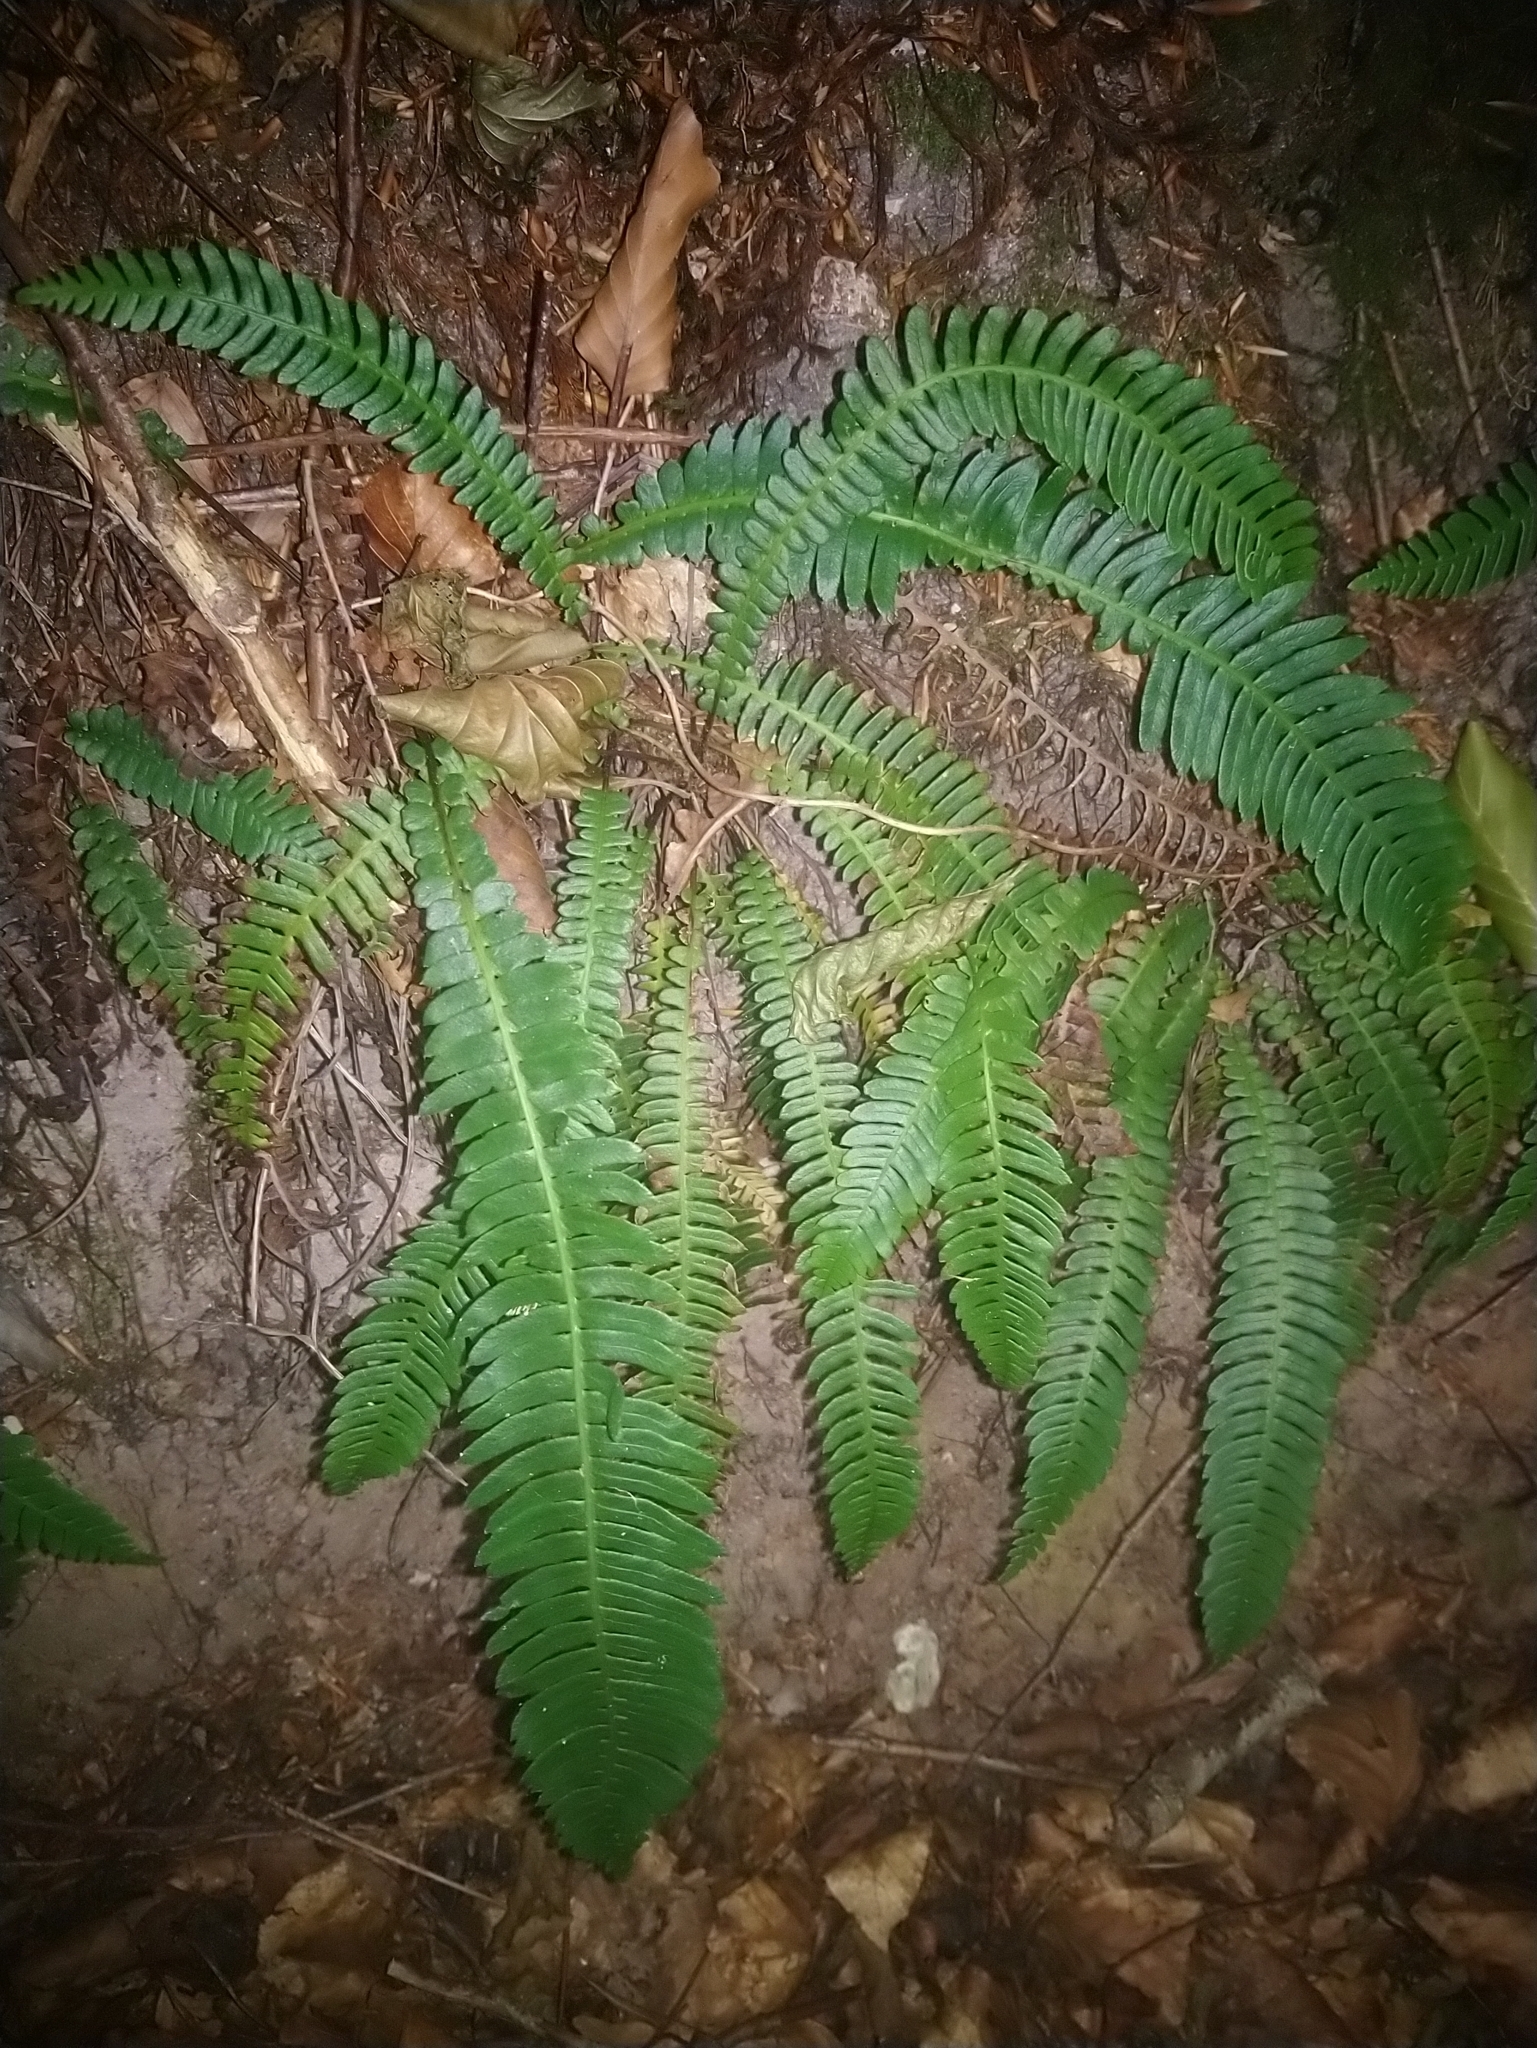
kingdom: Plantae
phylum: Tracheophyta
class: Polypodiopsida
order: Polypodiales
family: Blechnaceae
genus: Struthiopteris
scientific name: Struthiopteris spicant
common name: Deer fern
